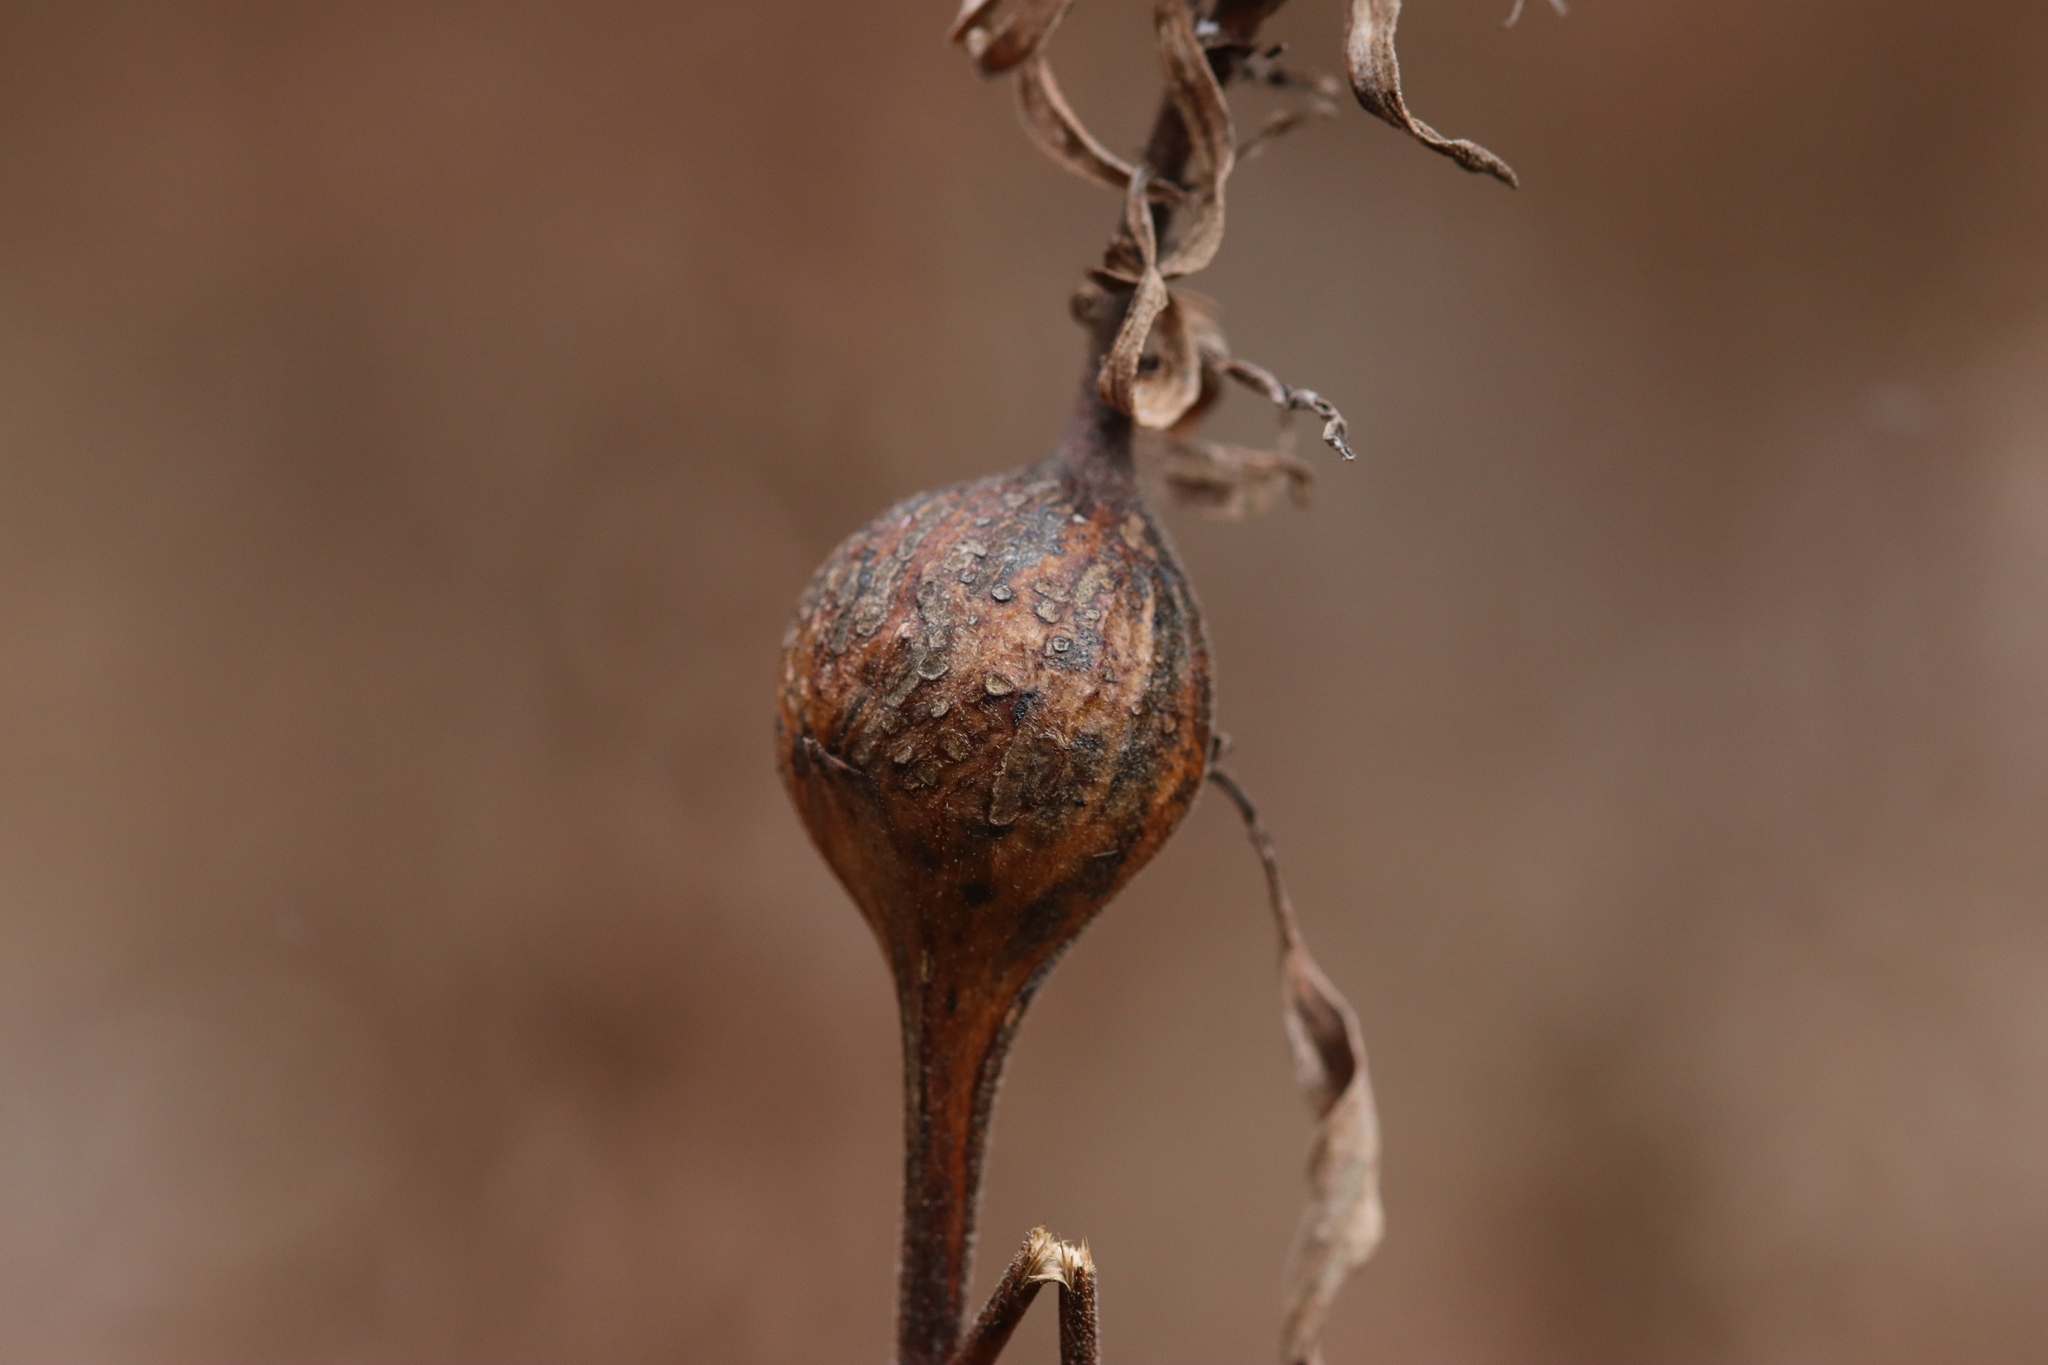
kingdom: Animalia
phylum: Arthropoda
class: Insecta
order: Diptera
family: Tephritidae
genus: Eurosta
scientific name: Eurosta solidaginis
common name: Goldenrod gall fly
